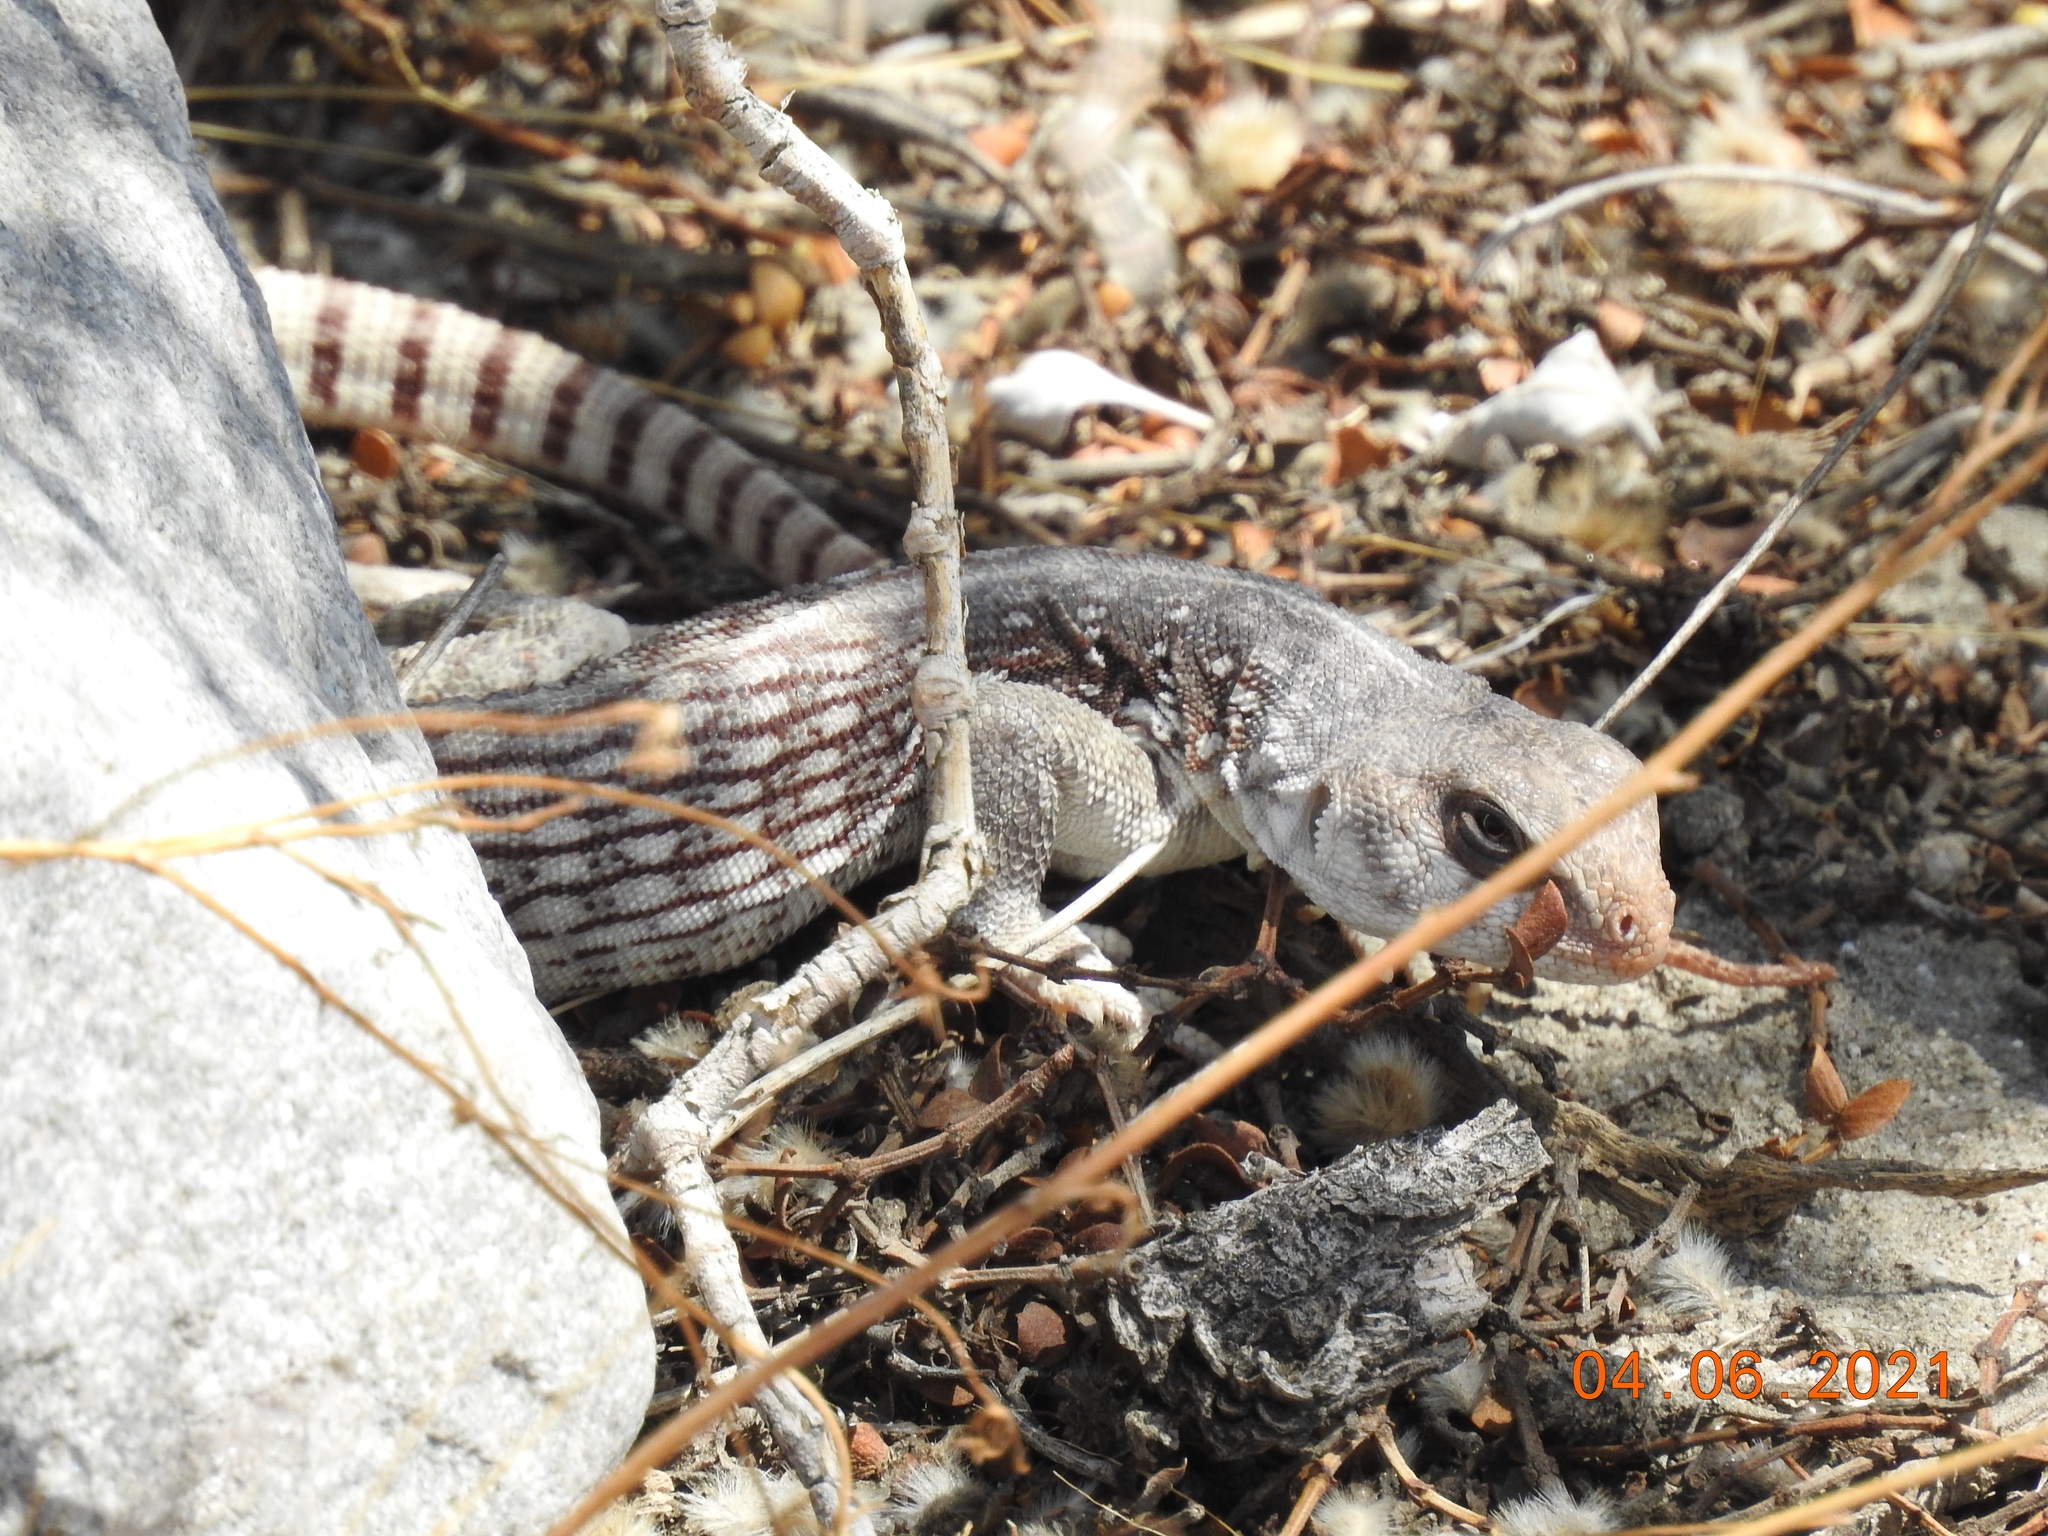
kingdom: Animalia
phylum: Chordata
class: Squamata
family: Iguanidae
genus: Dipsosaurus
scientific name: Dipsosaurus dorsalis
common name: Desert iguana
